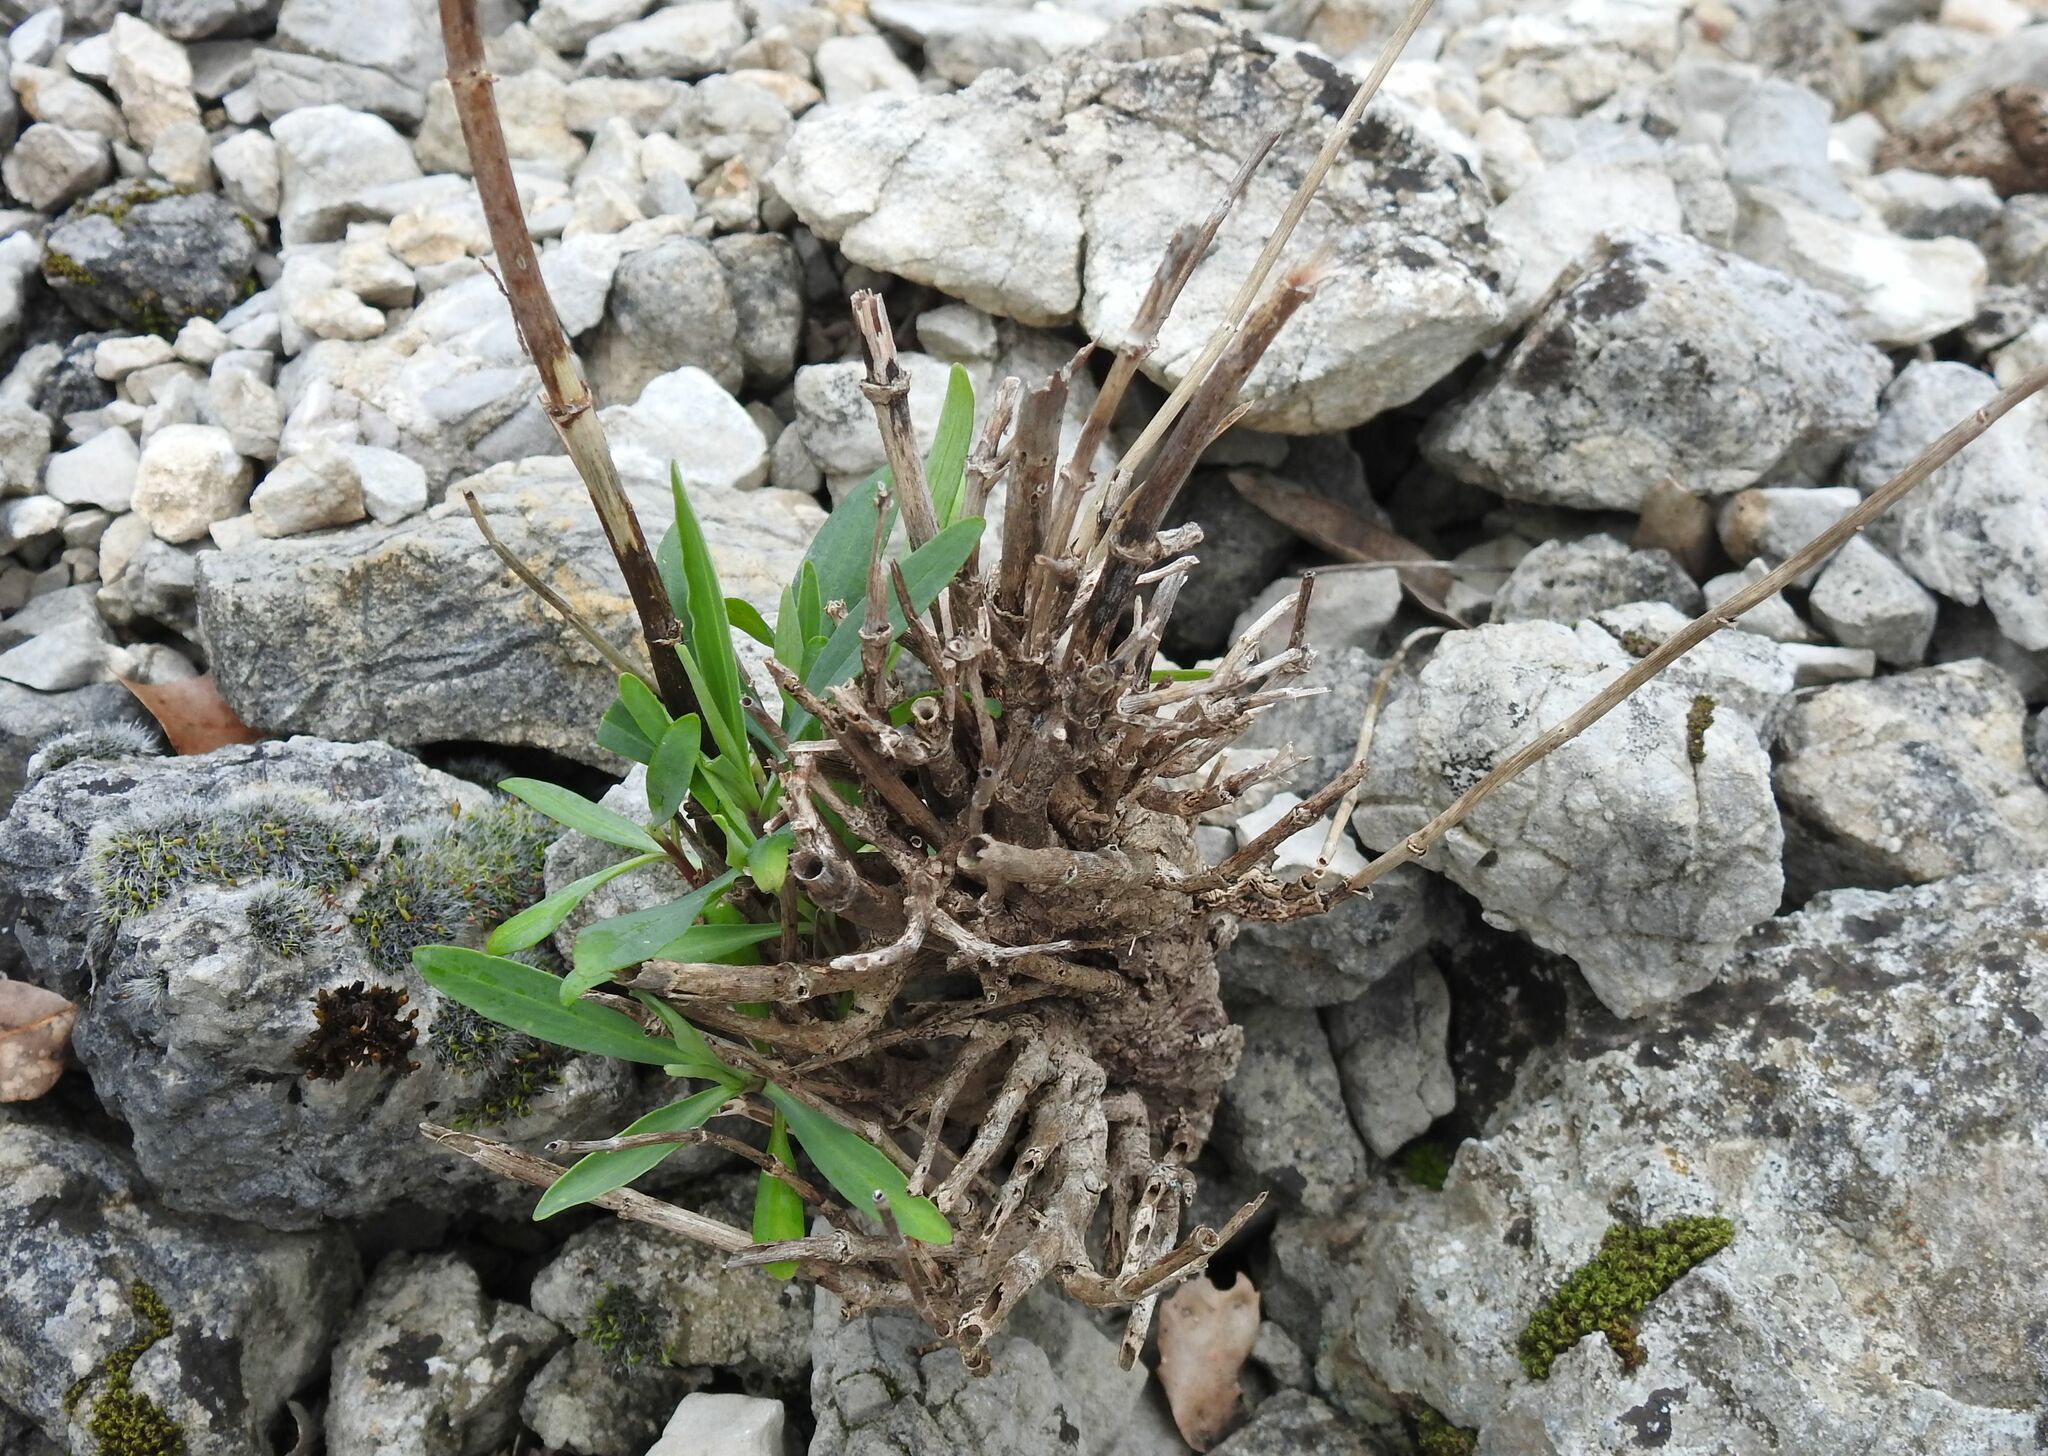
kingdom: Plantae
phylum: Tracheophyta
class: Magnoliopsida
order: Dipsacales
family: Caprifoliaceae
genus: Centranthus
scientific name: Centranthus lecoqii
